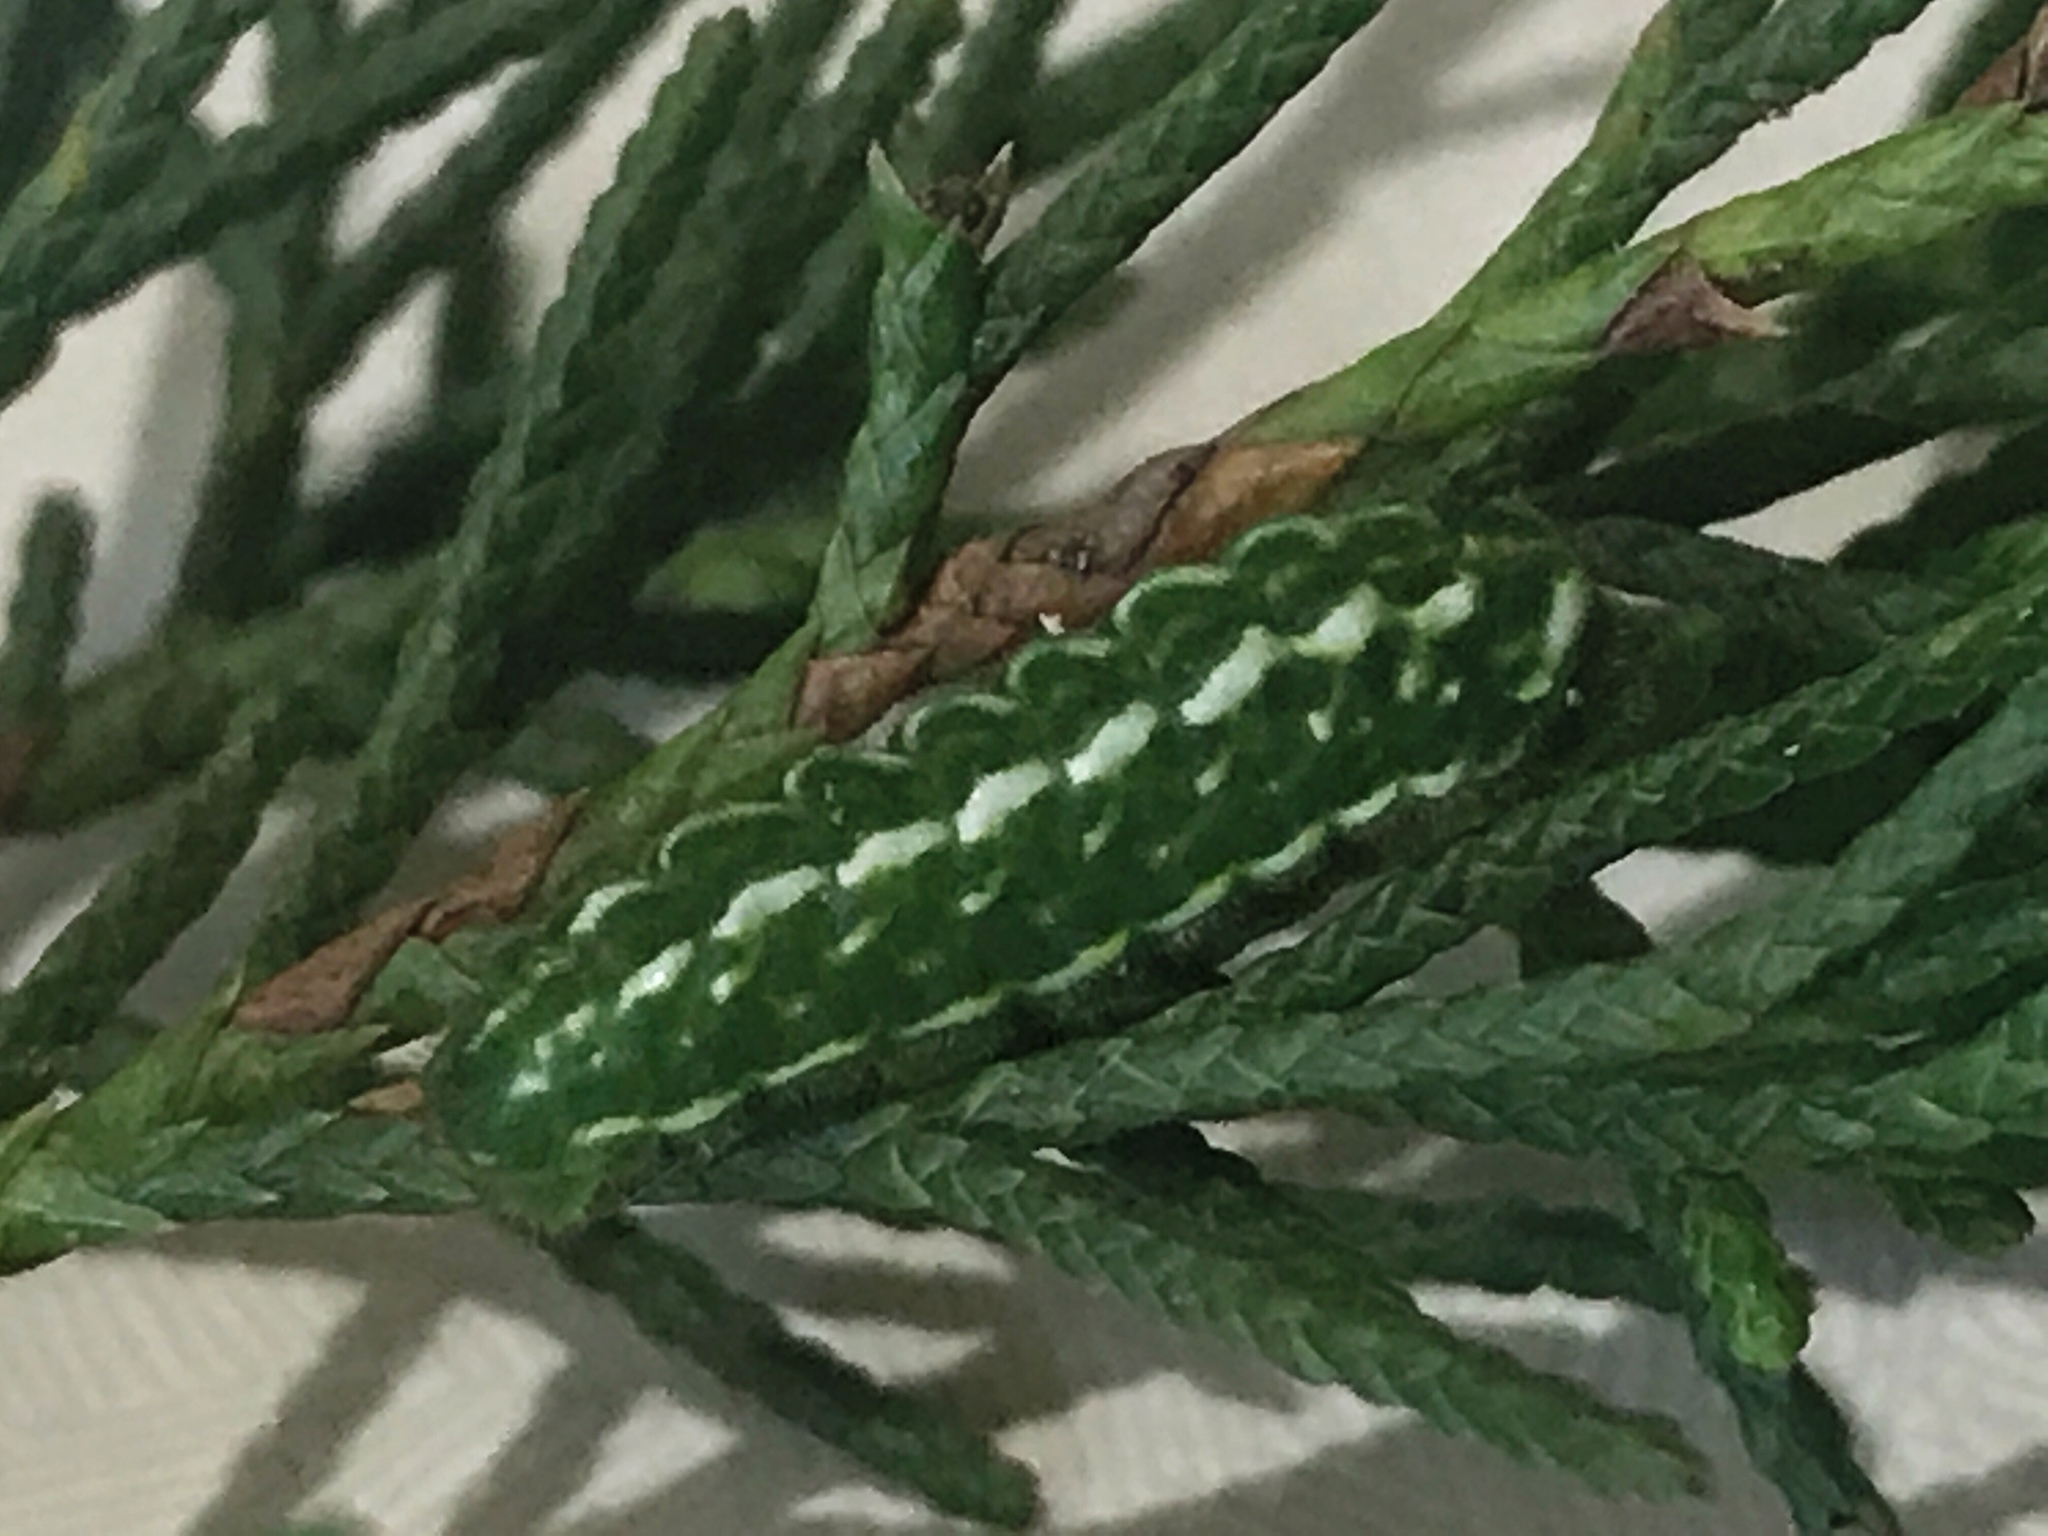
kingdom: Animalia
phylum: Arthropoda
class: Insecta
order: Lepidoptera
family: Lycaenidae
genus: Mitoura
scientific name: Mitoura gryneus
